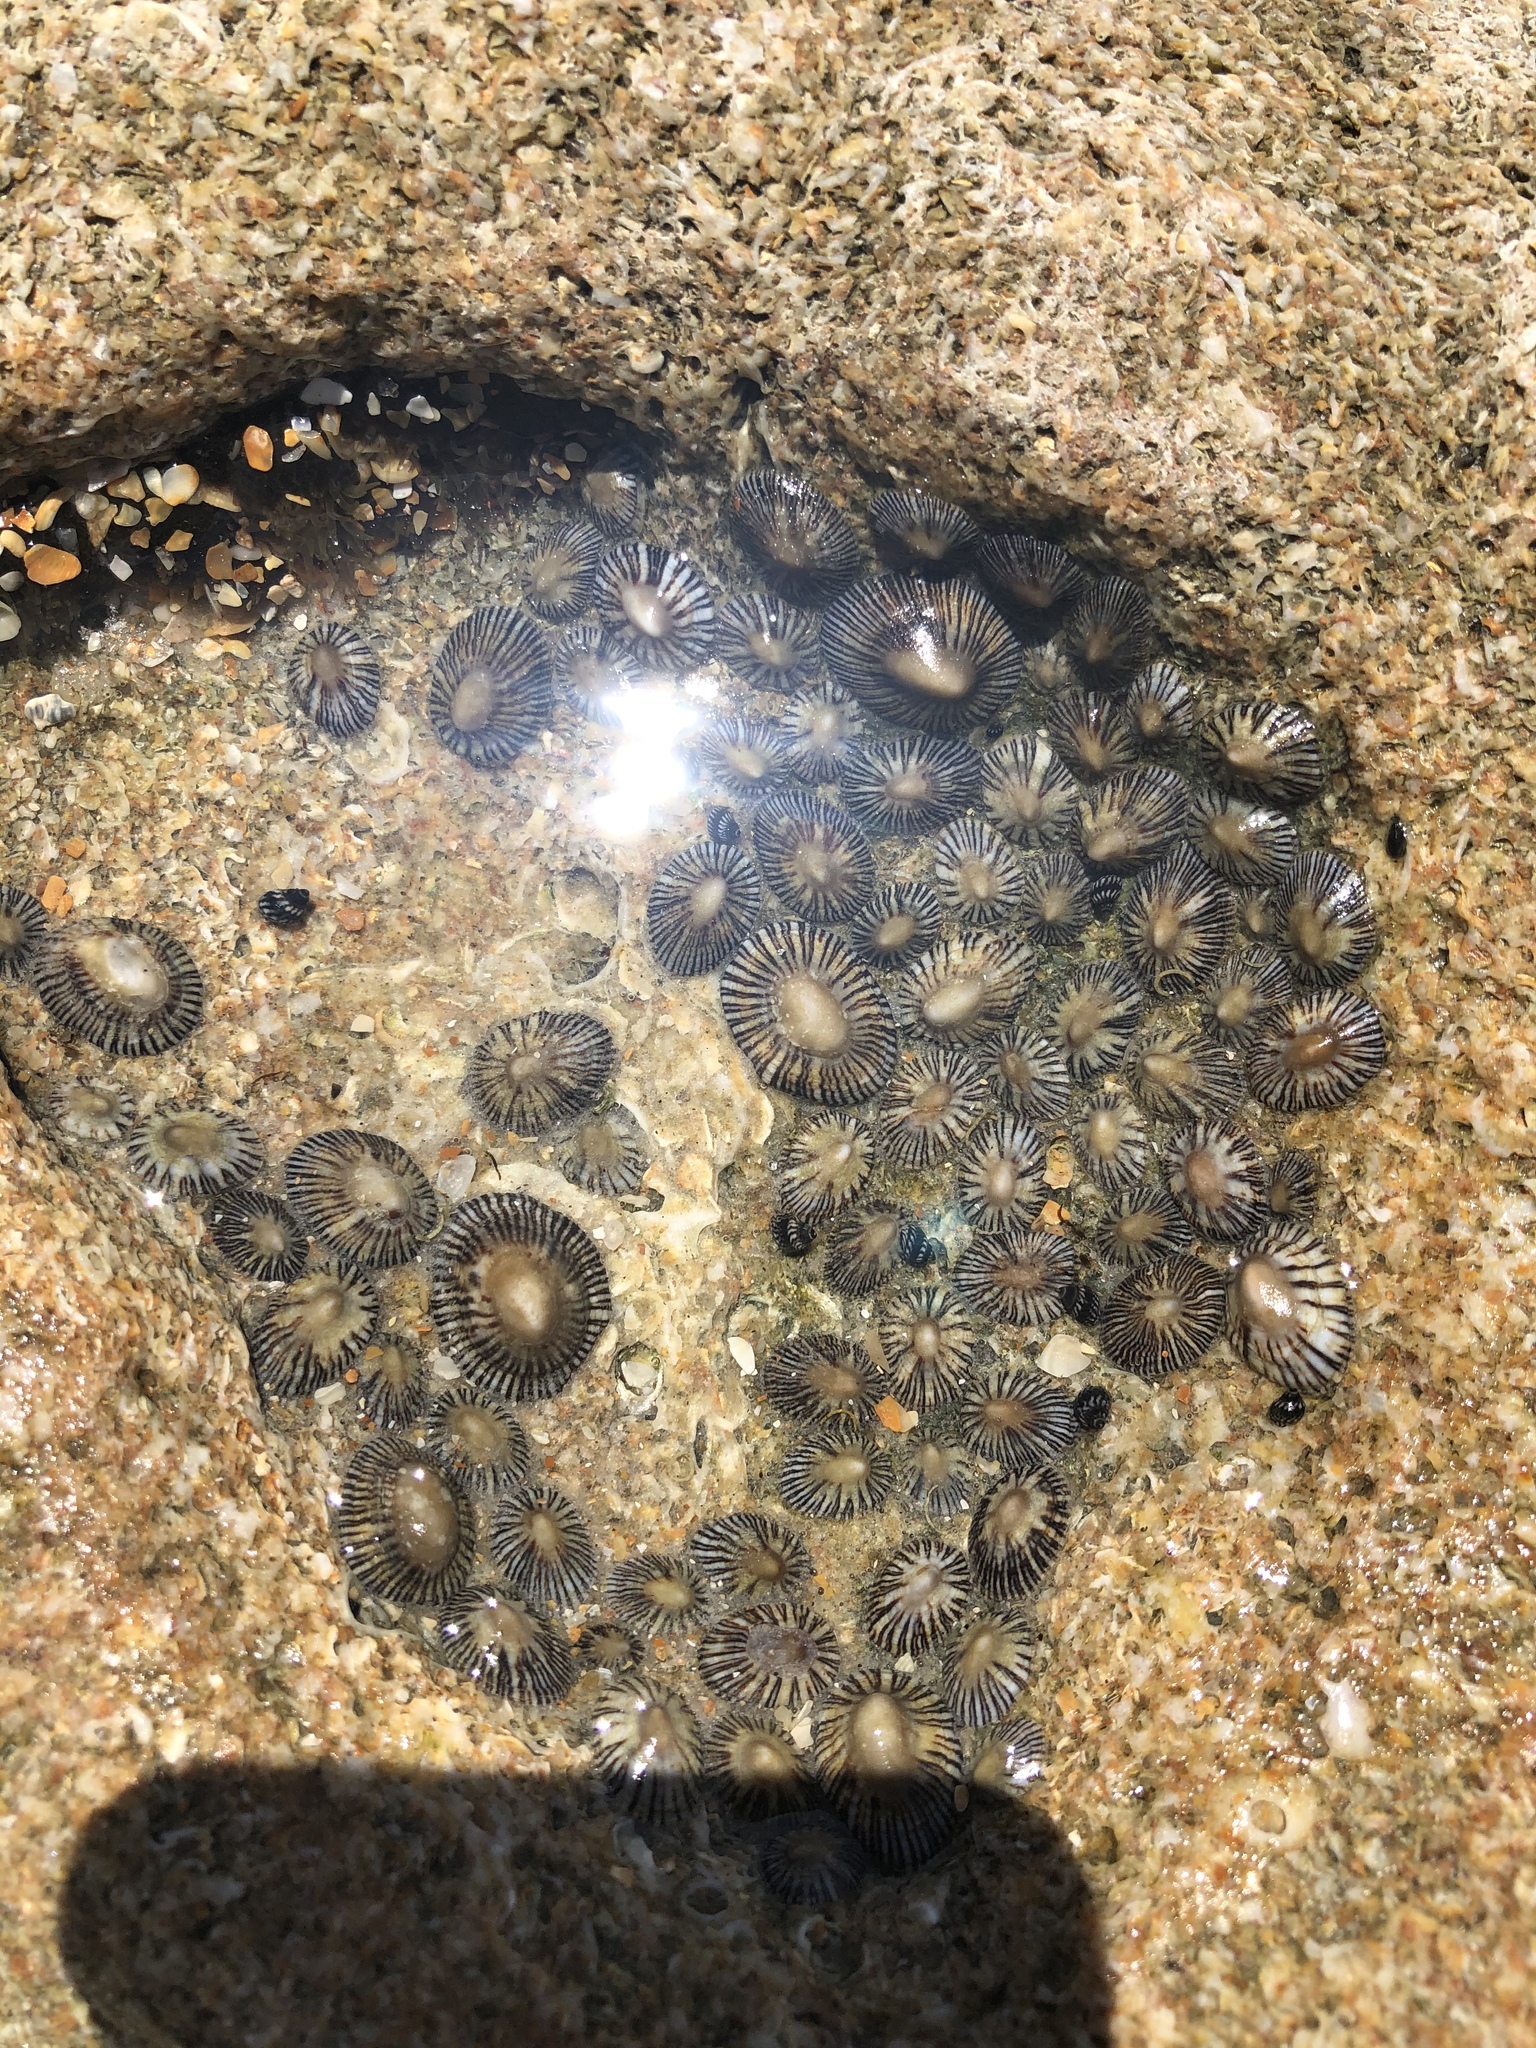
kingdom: Animalia
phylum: Mollusca
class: Gastropoda
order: Siphonariida
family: Siphonariidae
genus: Siphonaria
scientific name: Siphonaria naufragum
